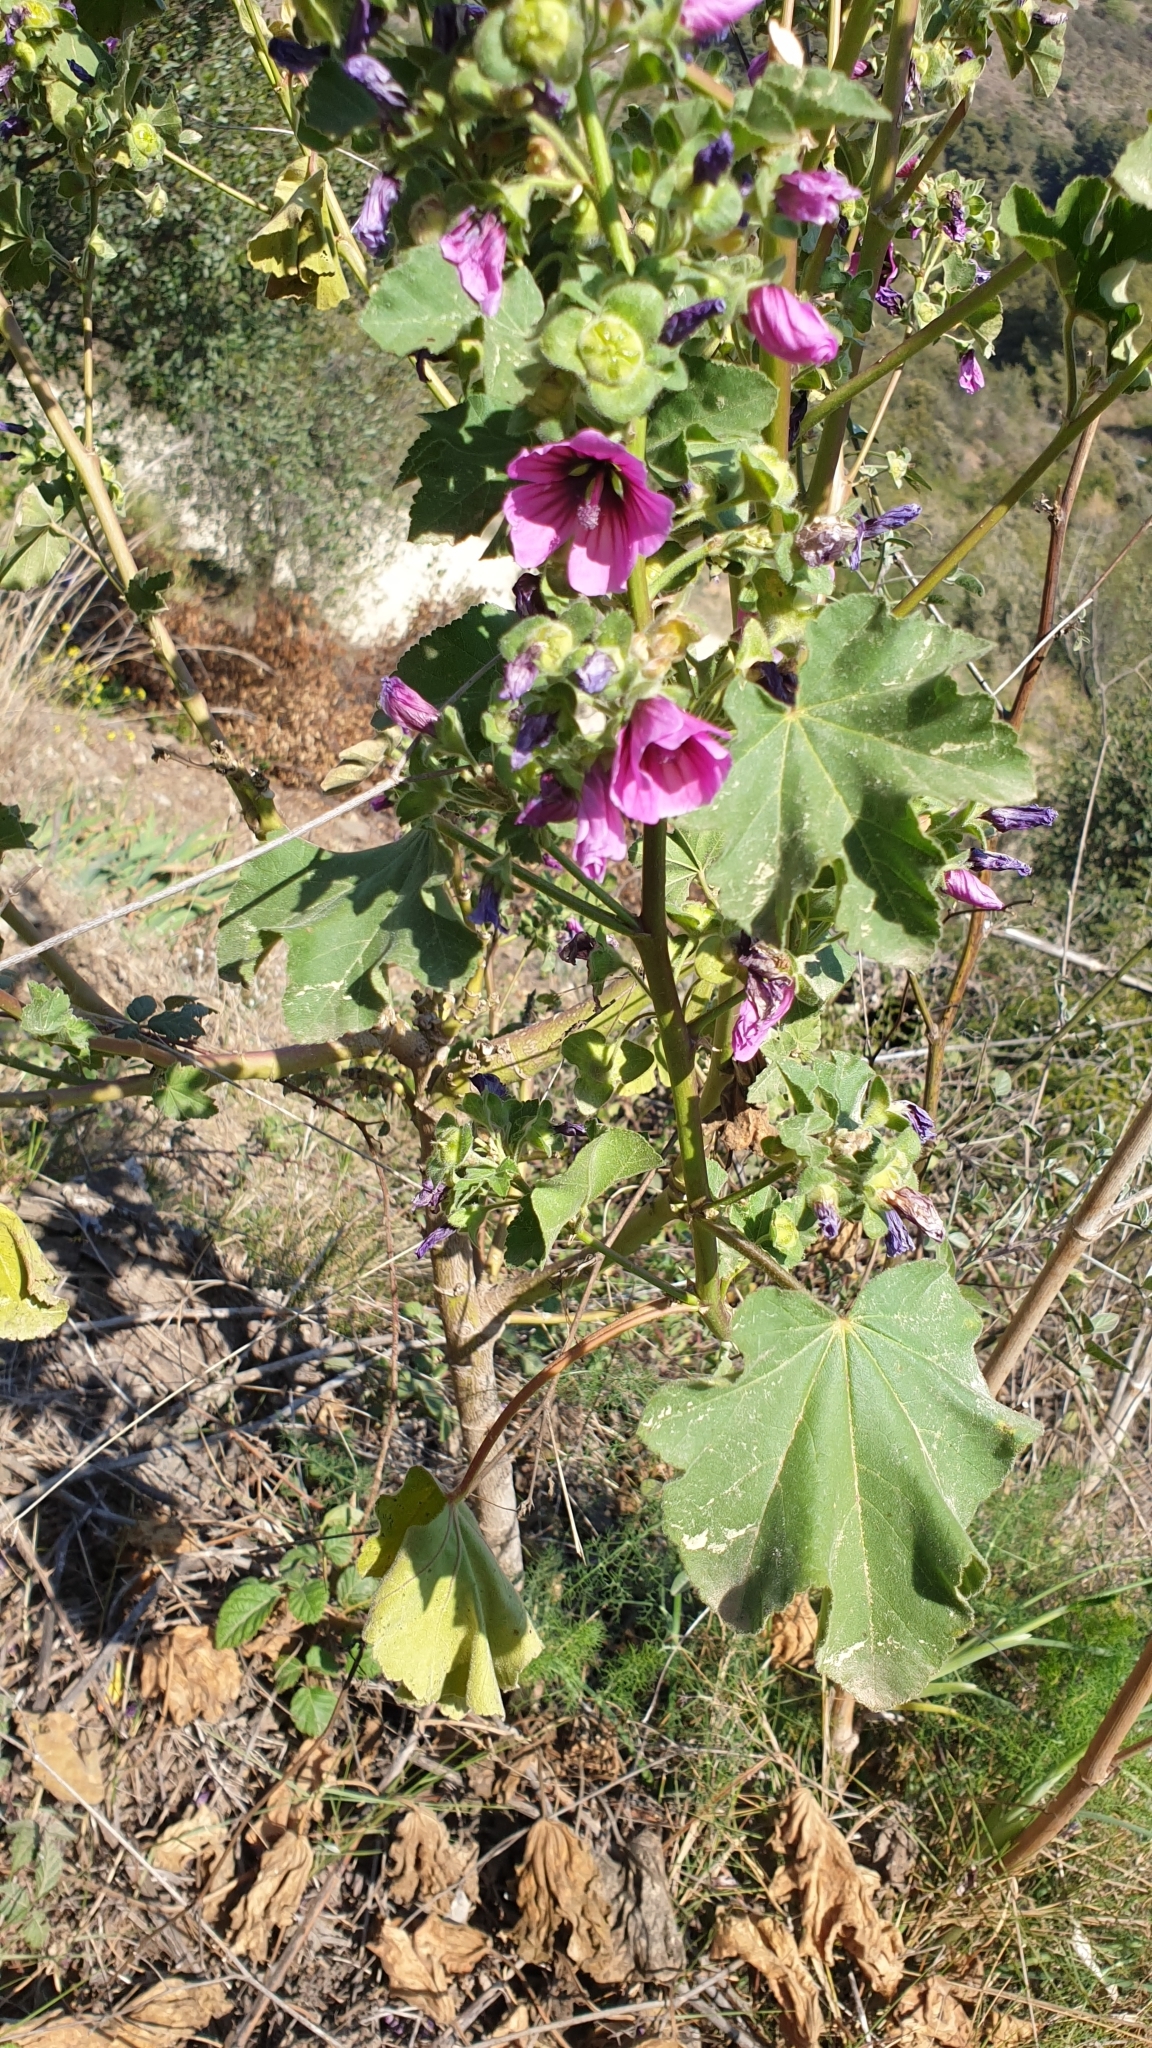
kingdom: Plantae
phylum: Tracheophyta
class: Magnoliopsida
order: Malvales
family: Malvaceae
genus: Malva
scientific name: Malva arborea
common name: Tree mallow
